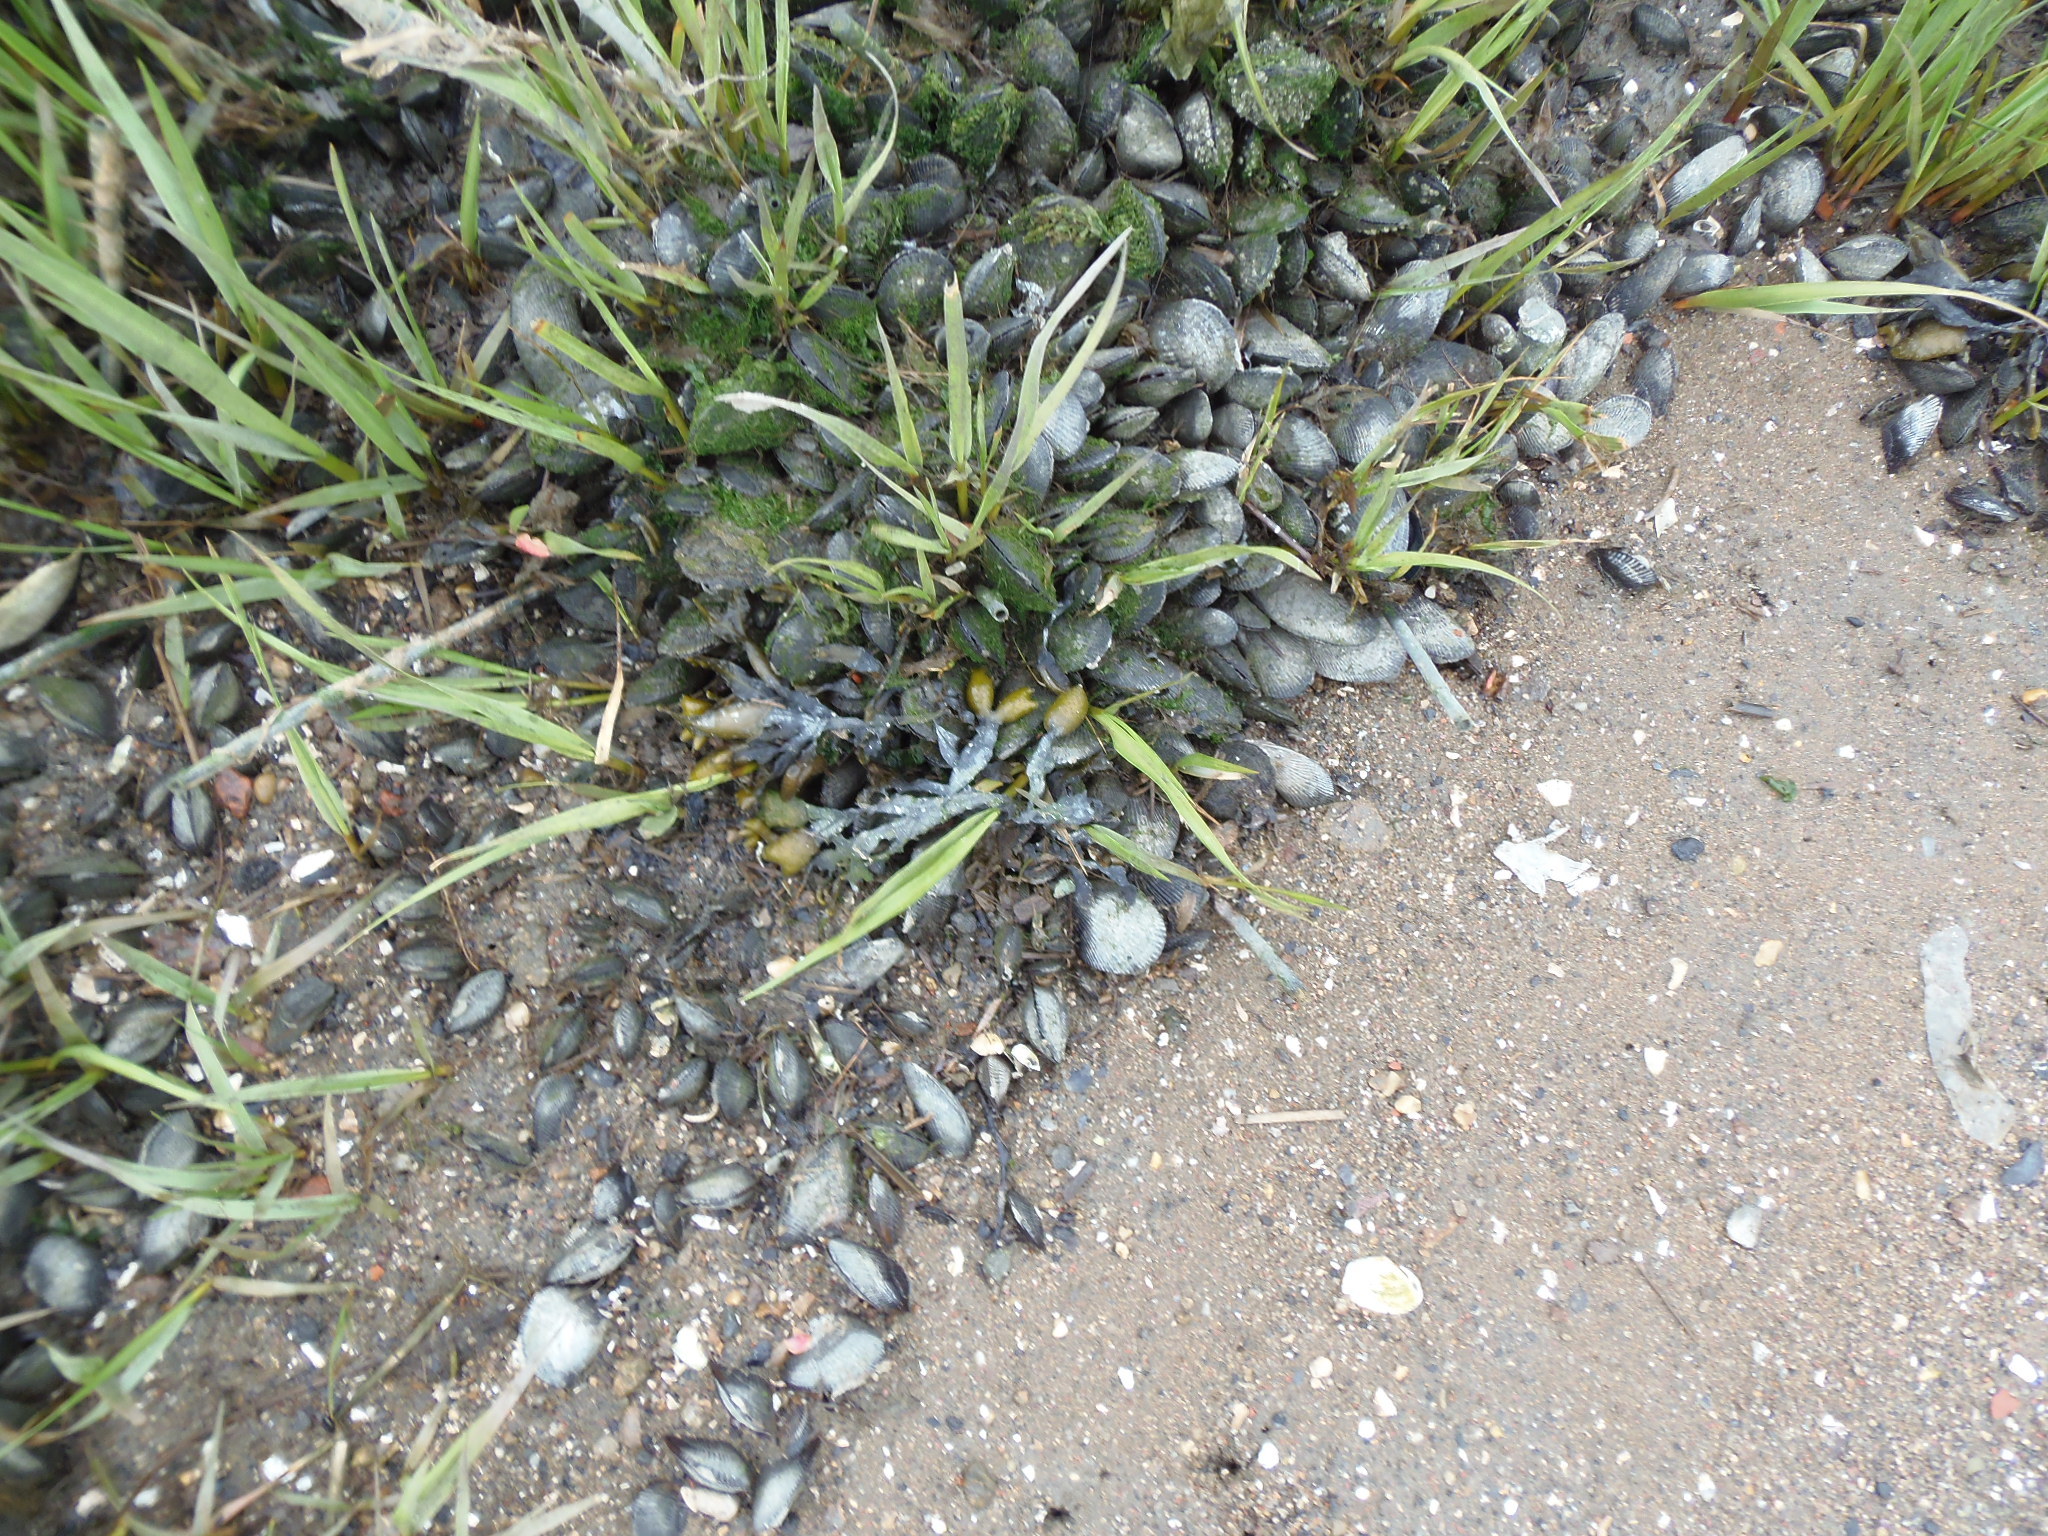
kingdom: Animalia
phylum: Mollusca
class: Bivalvia
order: Mytilida
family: Mytilidae
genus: Geukensia
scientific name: Geukensia demissa
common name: Ribbed mussel
